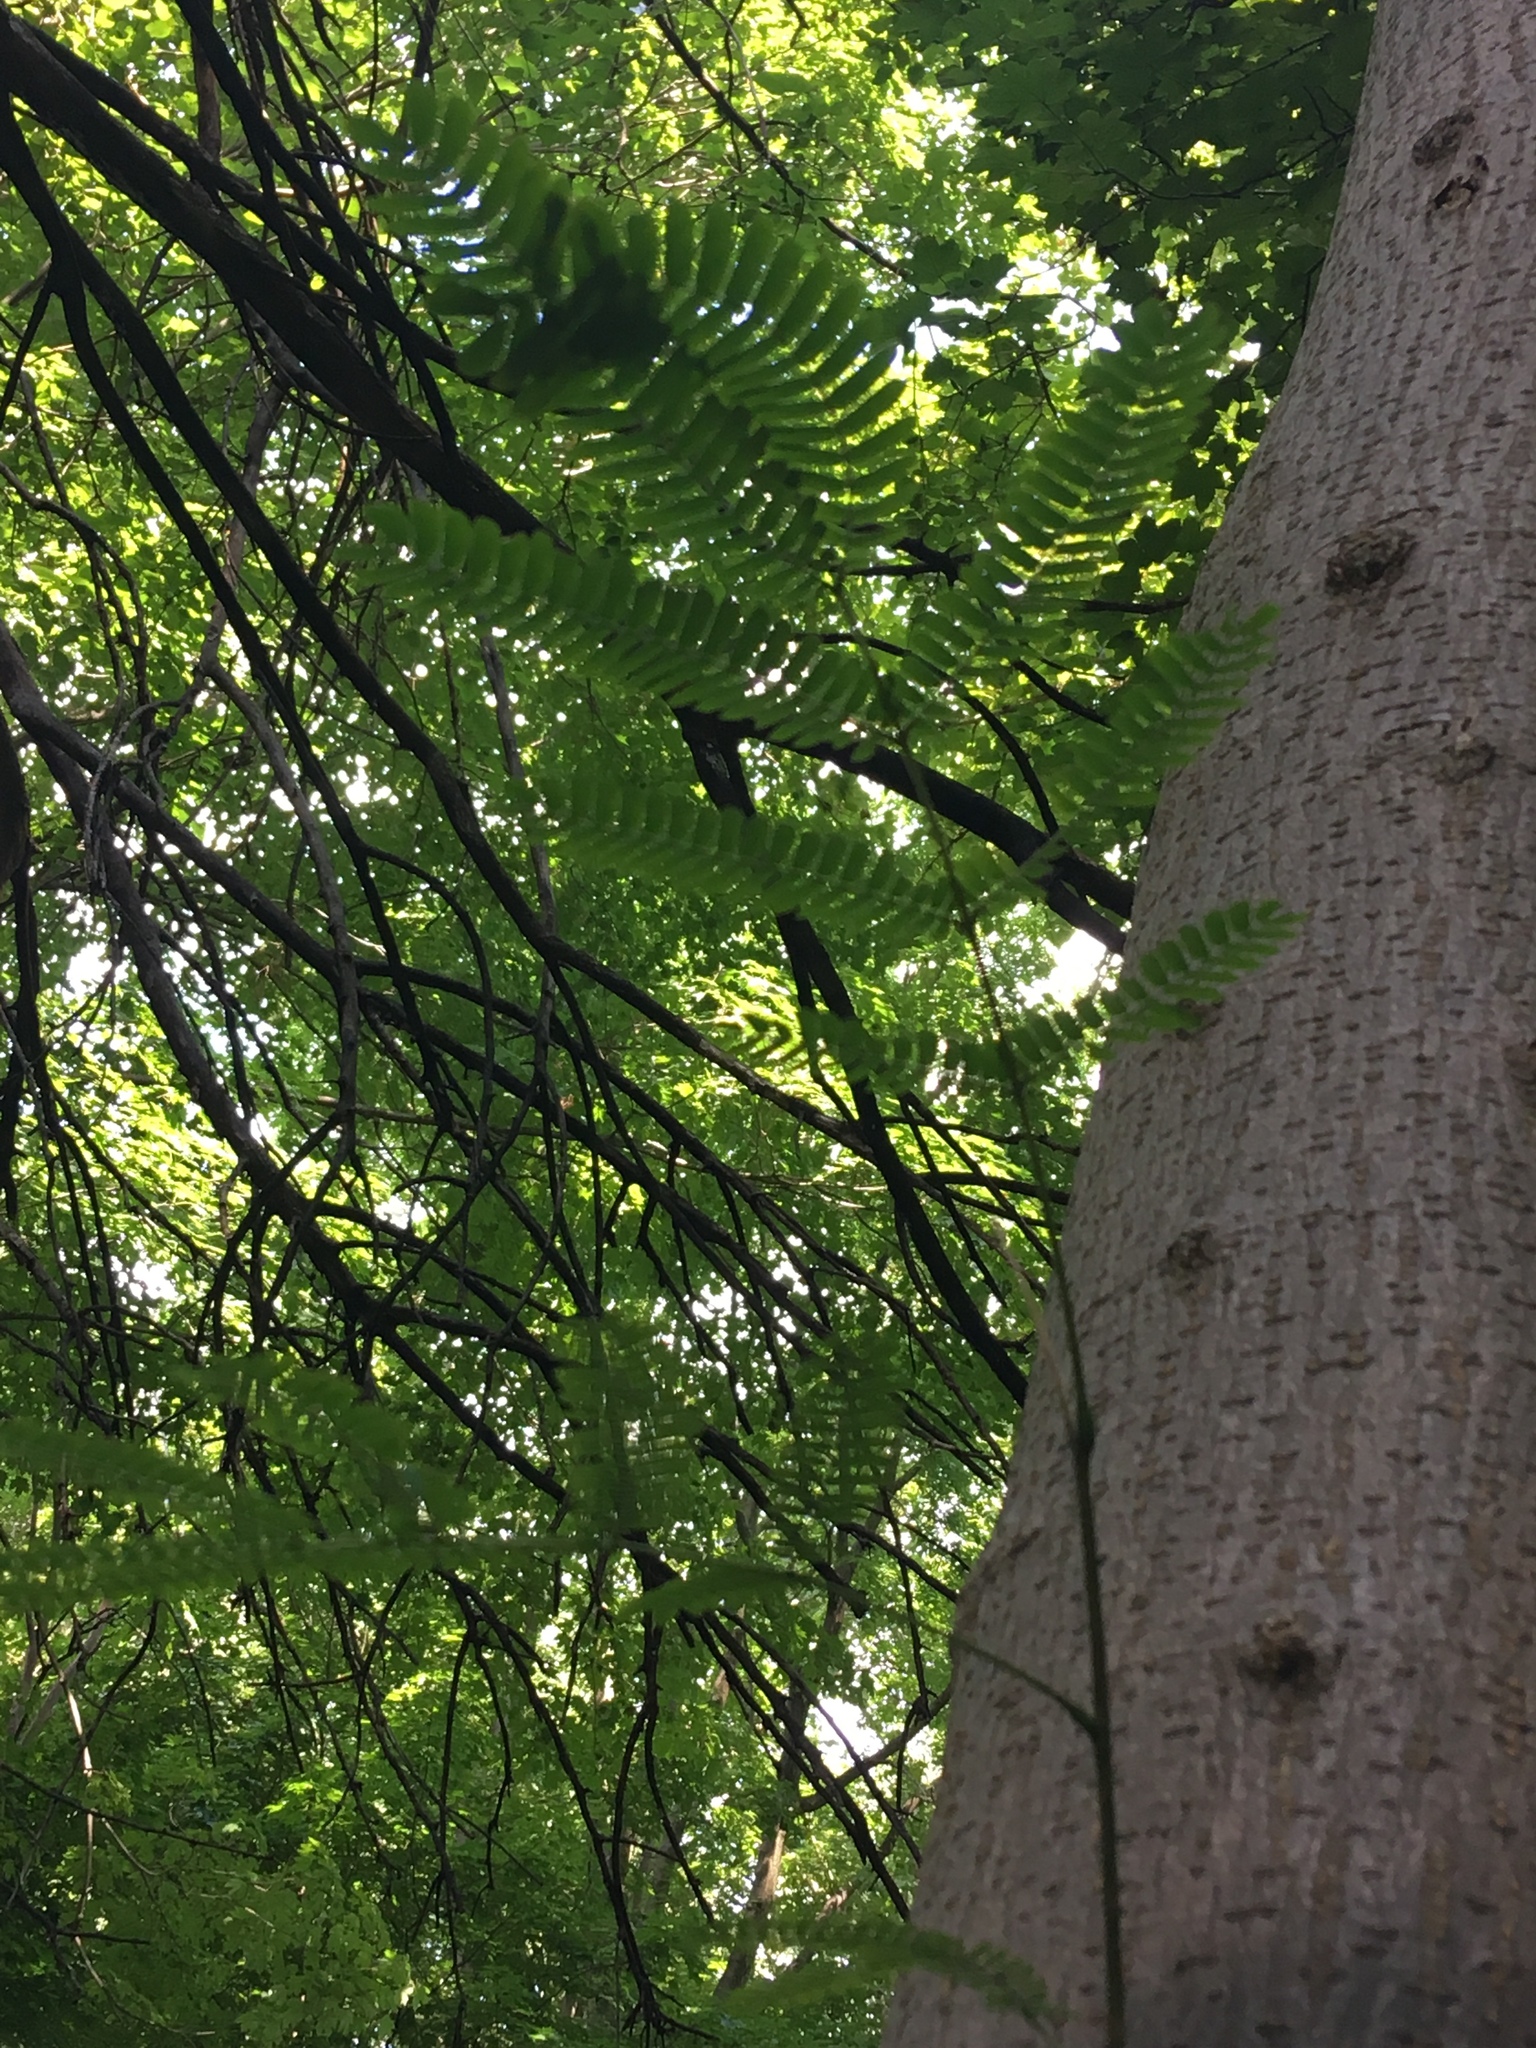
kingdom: Plantae
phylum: Tracheophyta
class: Magnoliopsida
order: Fabales
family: Fabaceae
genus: Albizia
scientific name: Albizia julibrissin
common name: Silktree
